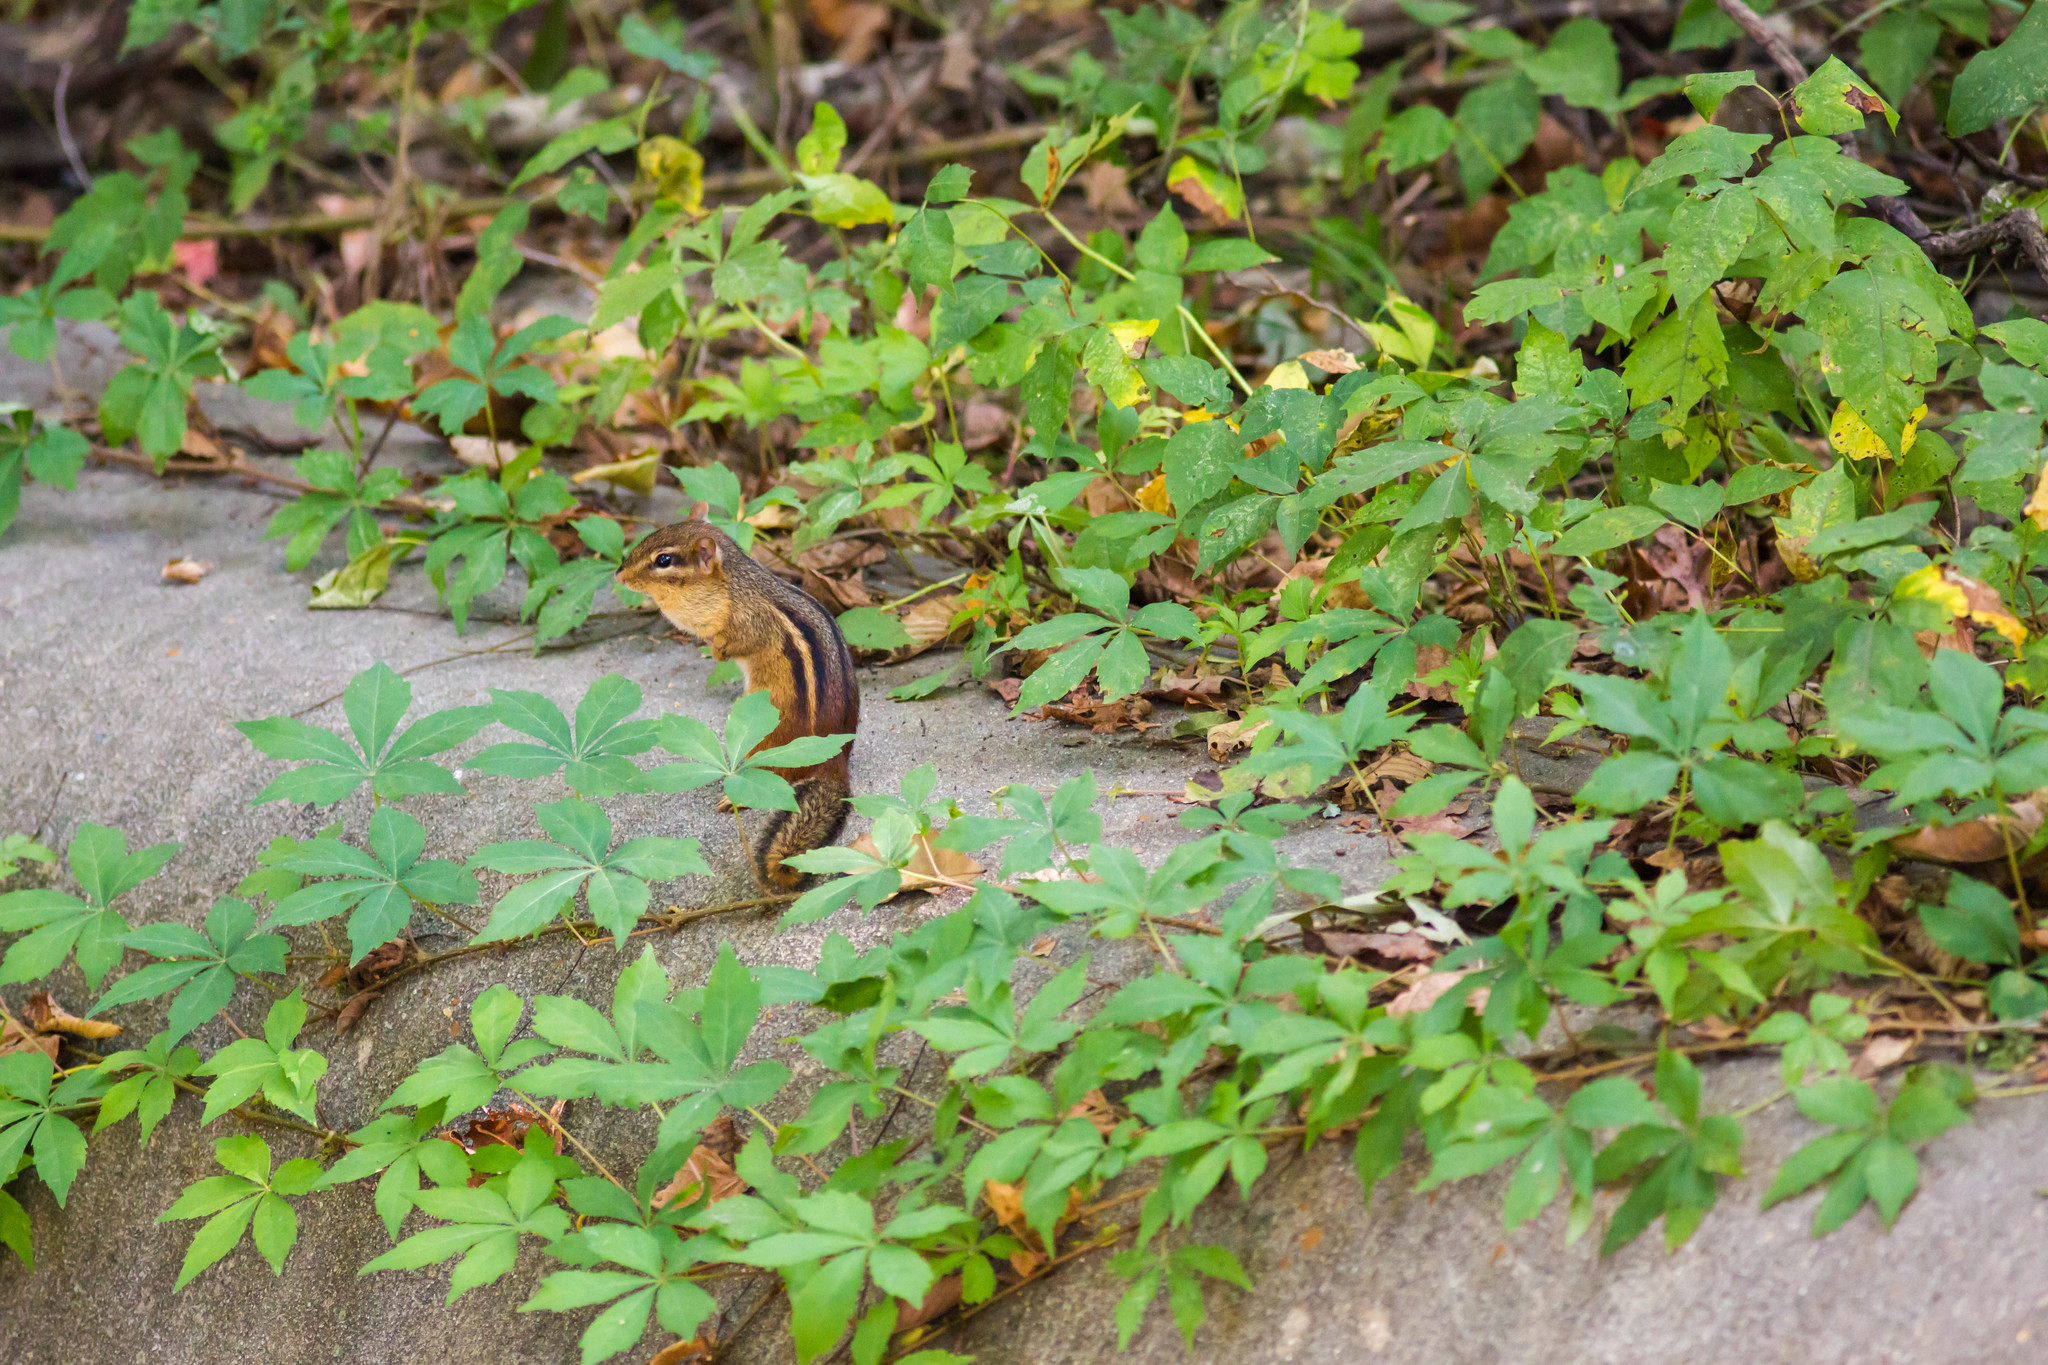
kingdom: Animalia
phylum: Chordata
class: Mammalia
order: Rodentia
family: Sciuridae
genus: Tamias
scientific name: Tamias striatus
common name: Eastern chipmunk
